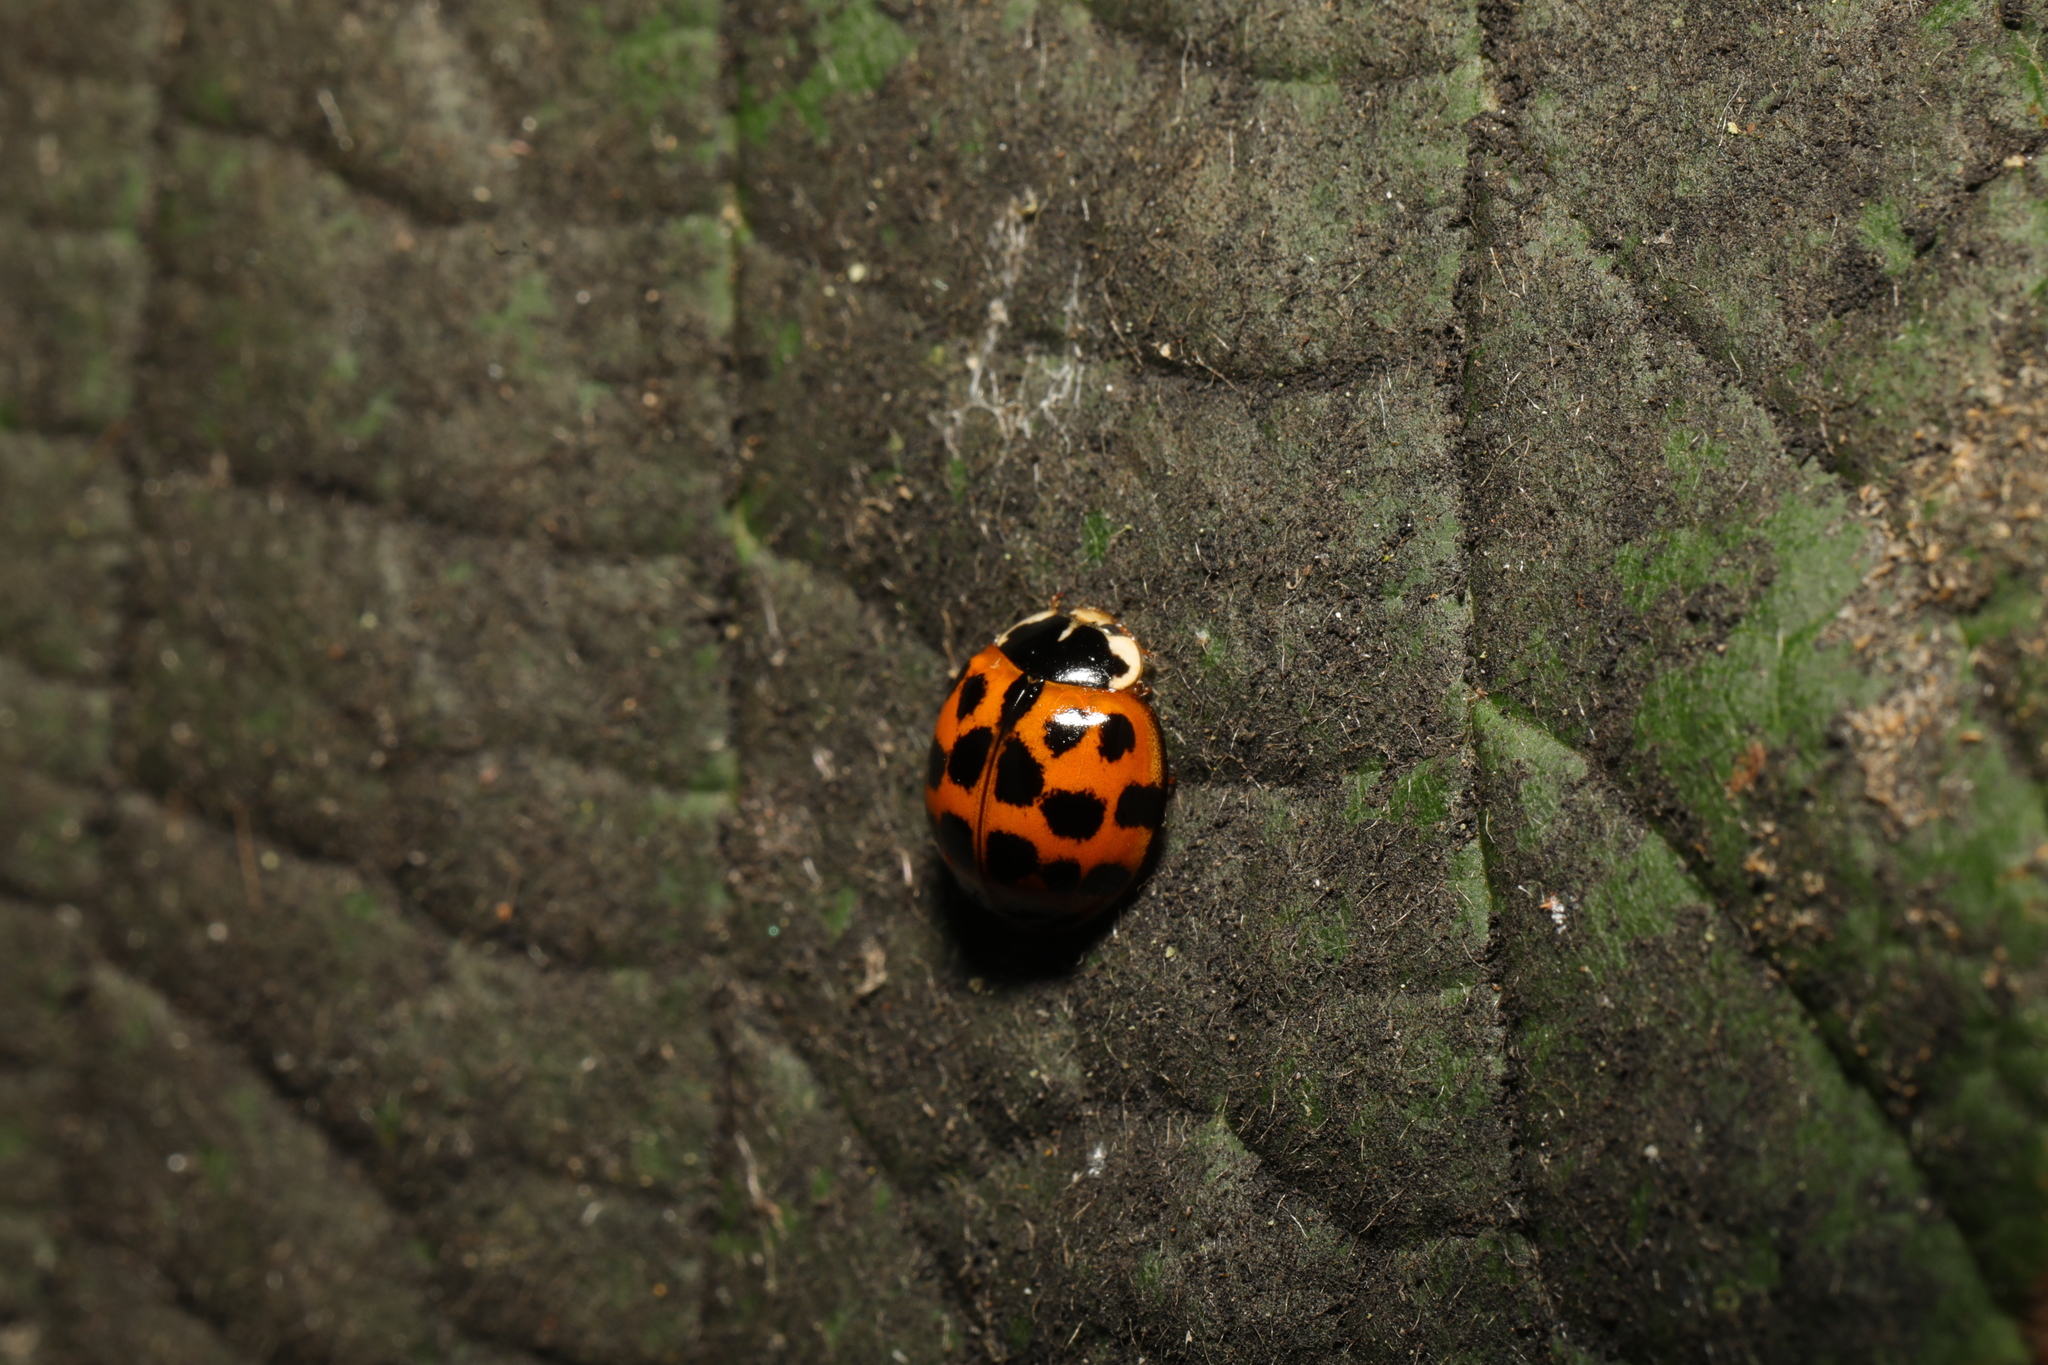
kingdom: Animalia
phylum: Arthropoda
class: Insecta
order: Coleoptera
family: Coccinellidae
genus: Harmonia
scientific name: Harmonia axyridis
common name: Harlequin ladybird
